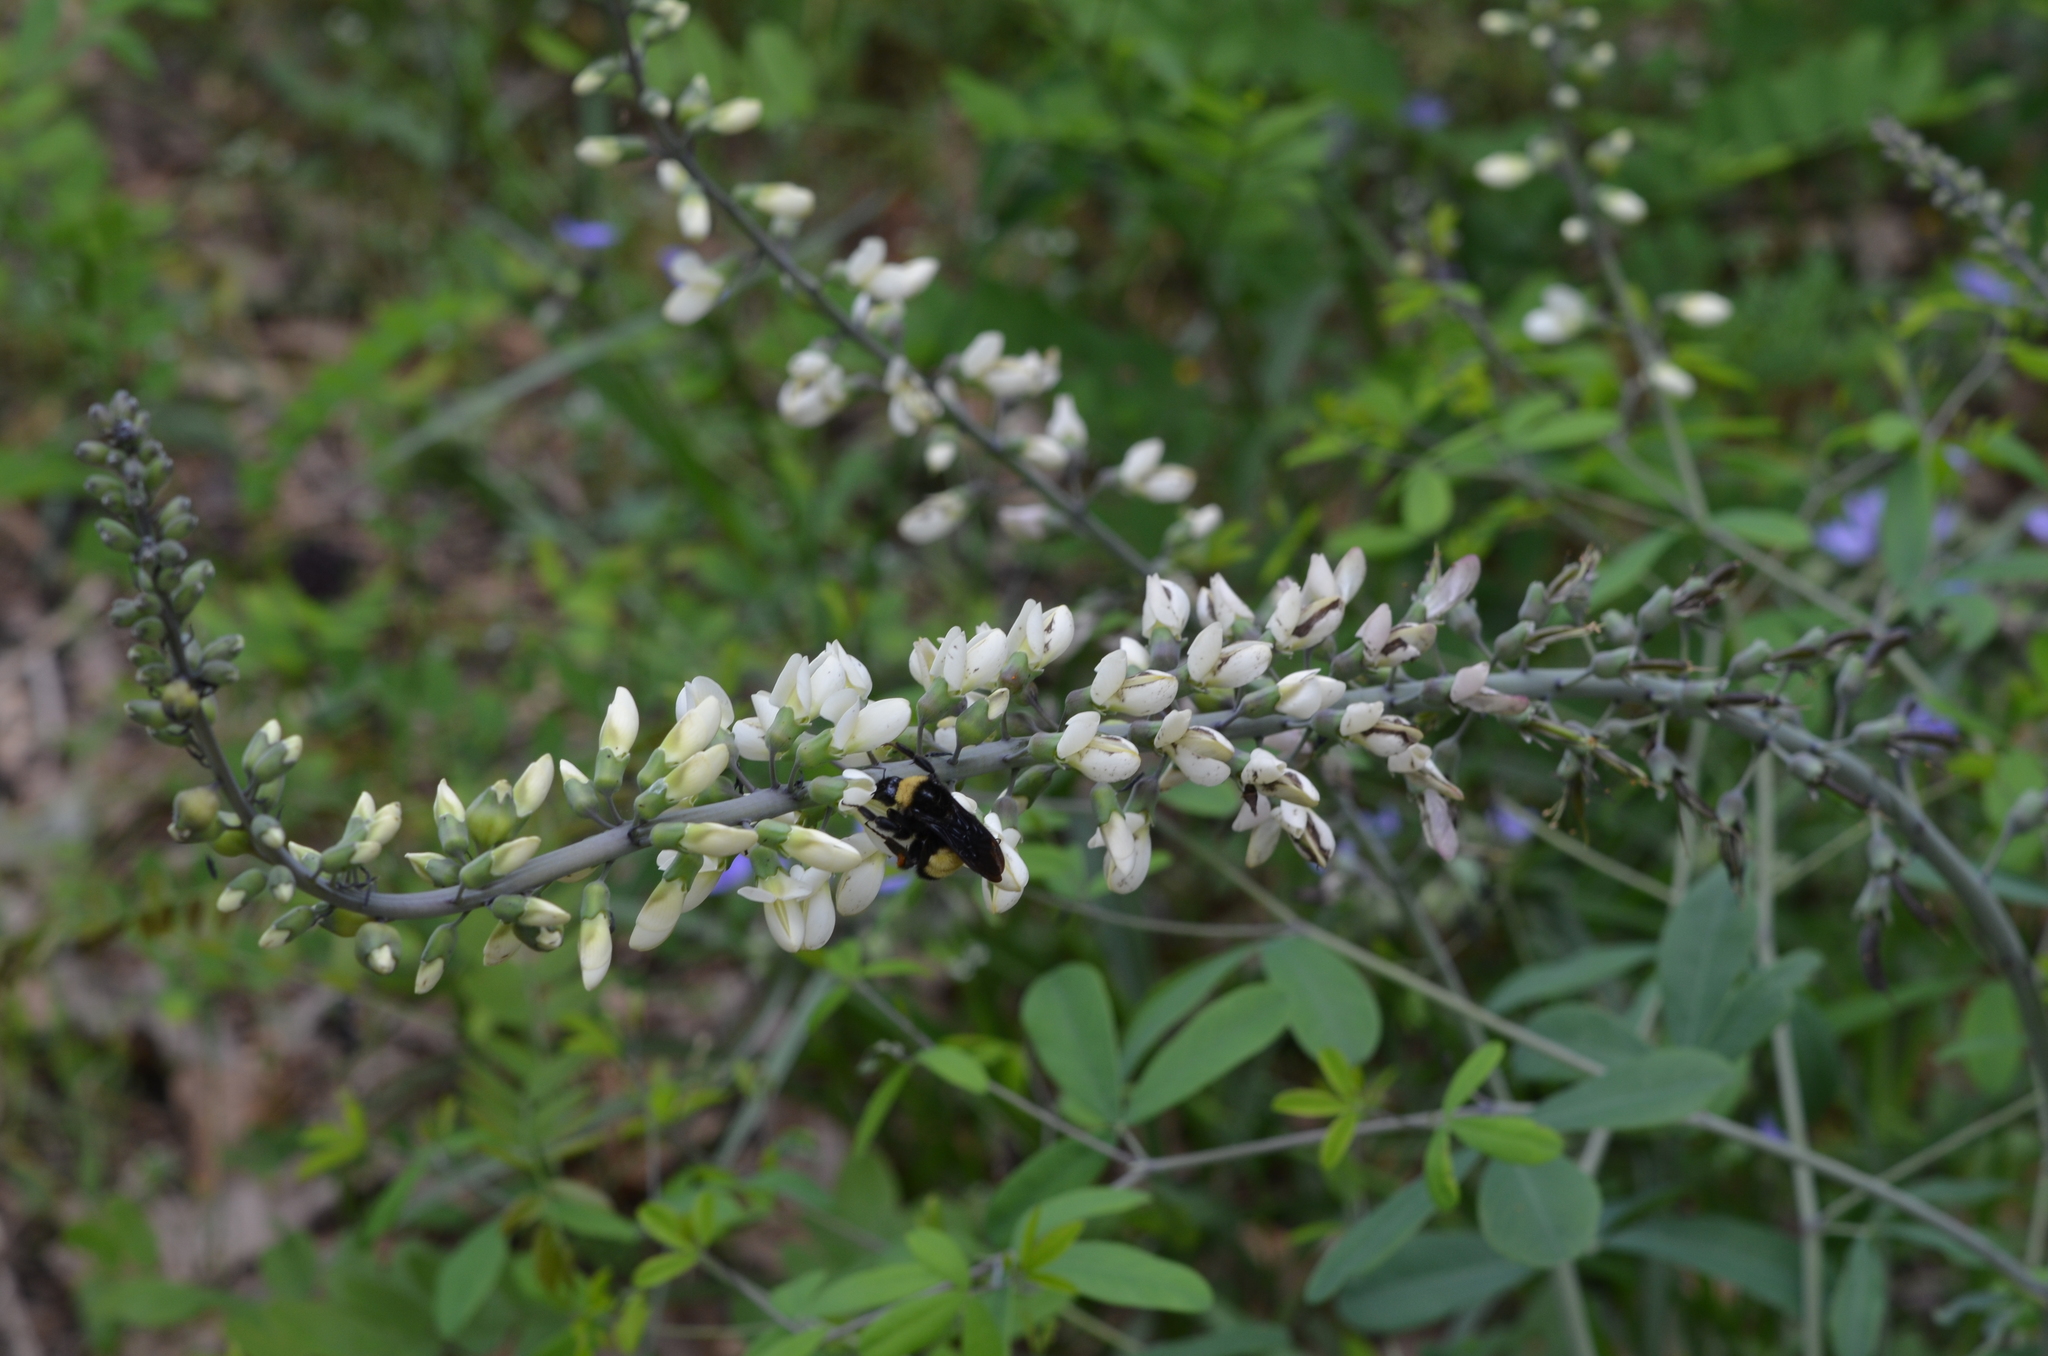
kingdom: Plantae
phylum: Tracheophyta
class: Magnoliopsida
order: Fabales
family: Fabaceae
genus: Baptisia
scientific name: Baptisia alba
